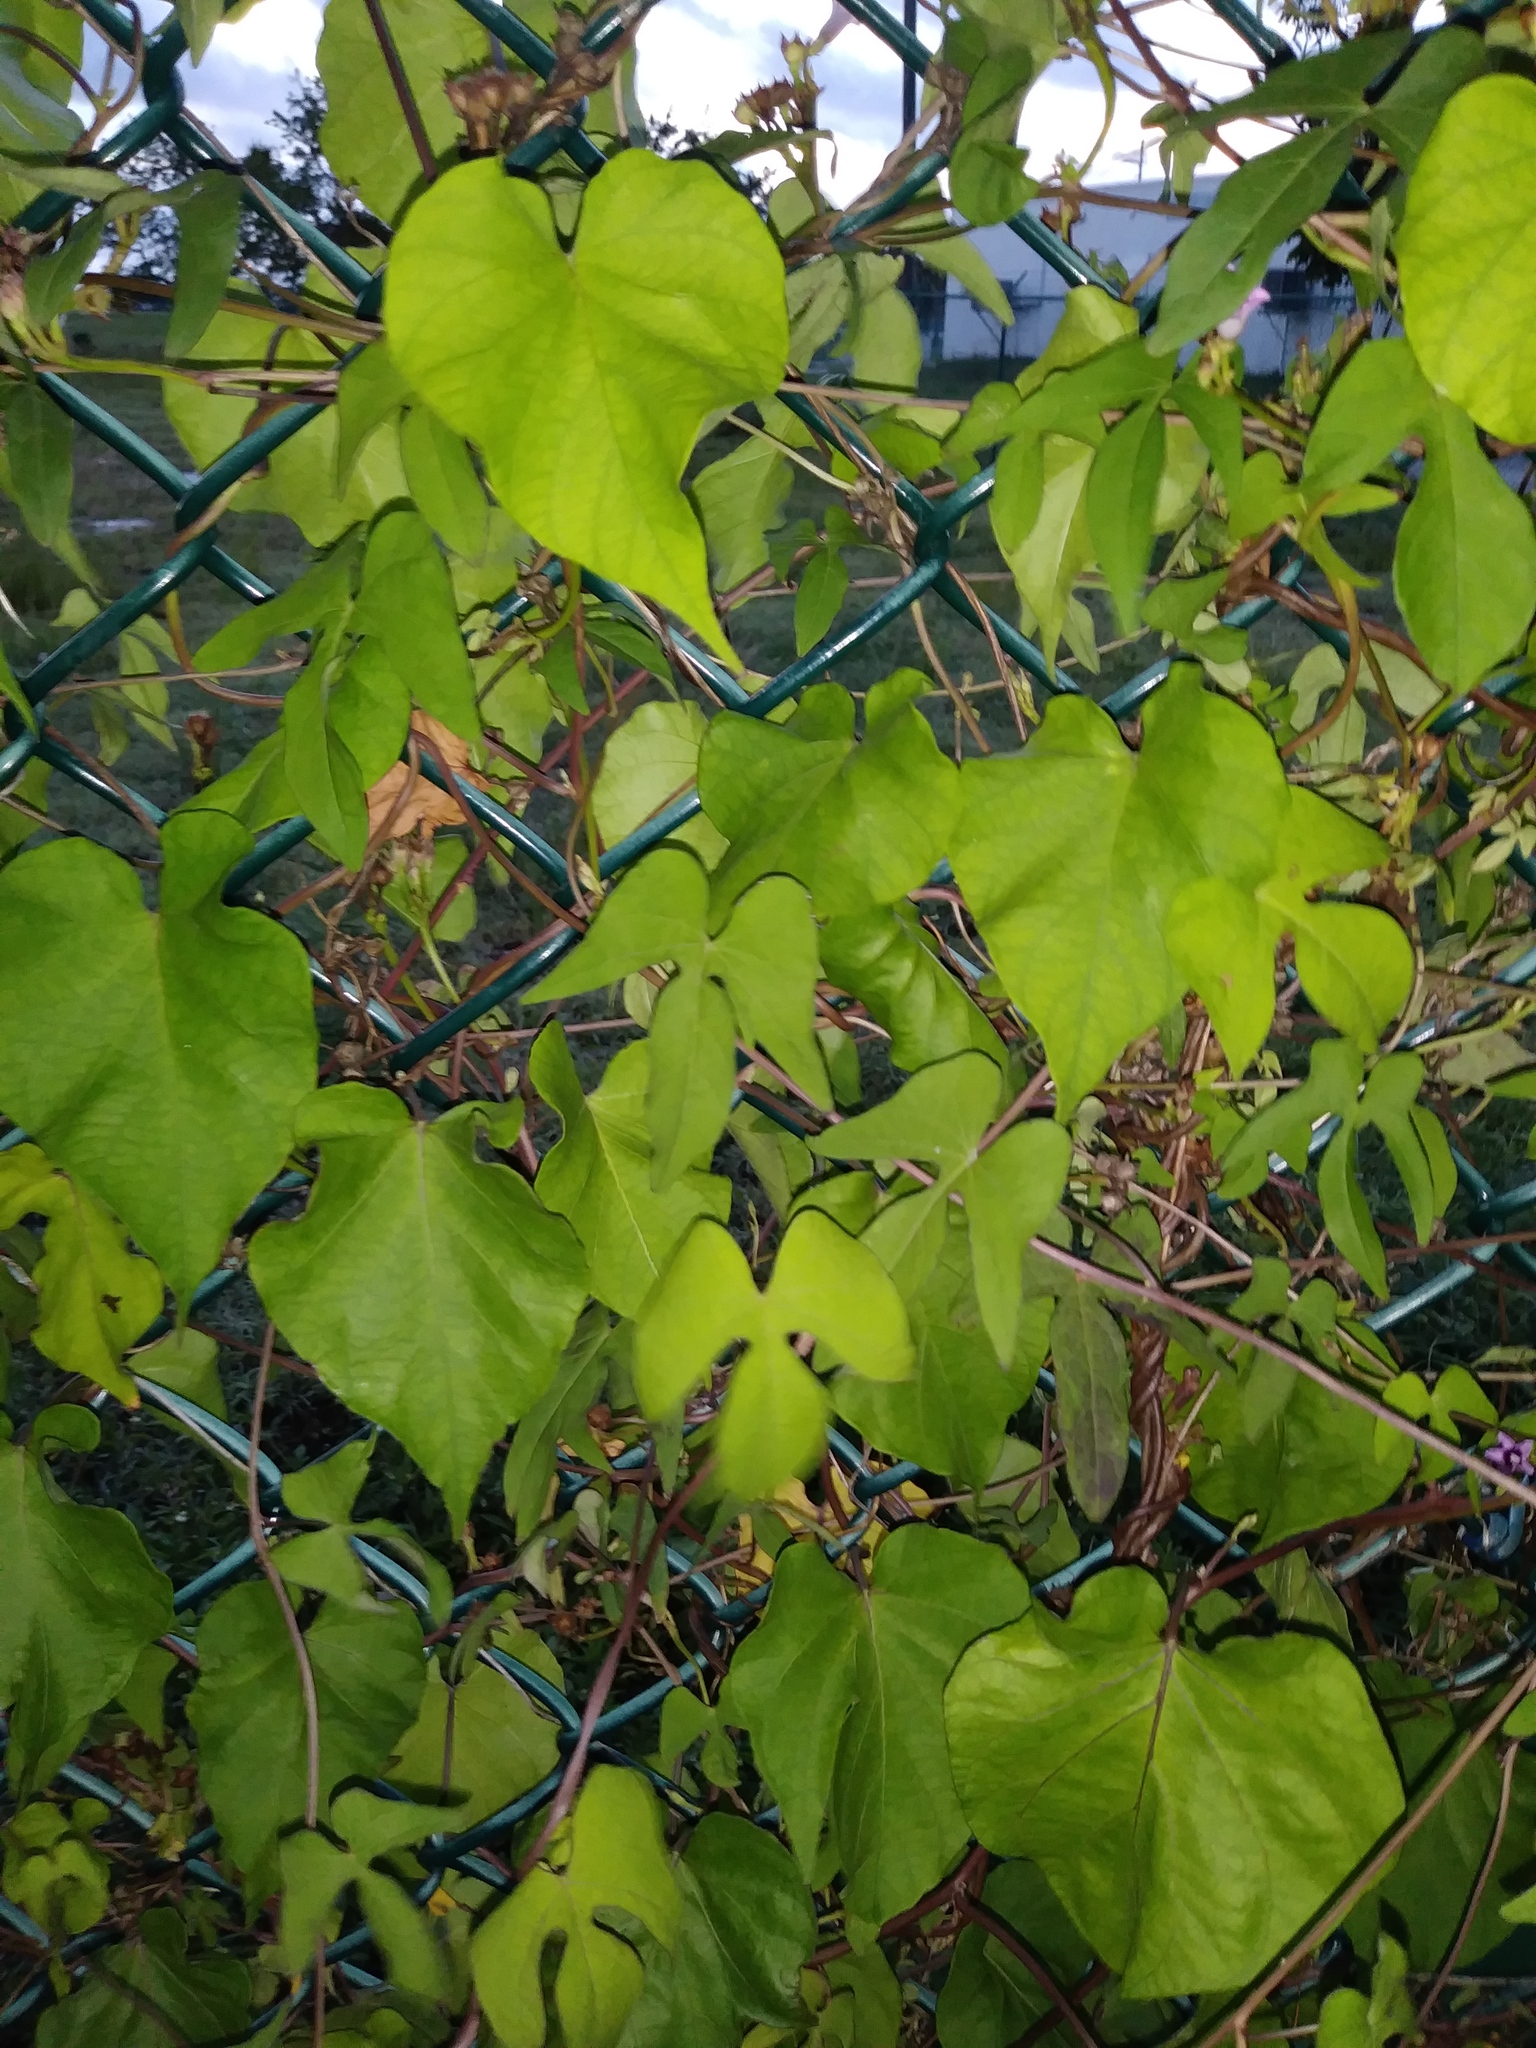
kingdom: Plantae
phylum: Tracheophyta
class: Magnoliopsida
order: Solanales
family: Convolvulaceae
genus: Ipomoea
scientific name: Ipomoea indica
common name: Blue dawnflower
